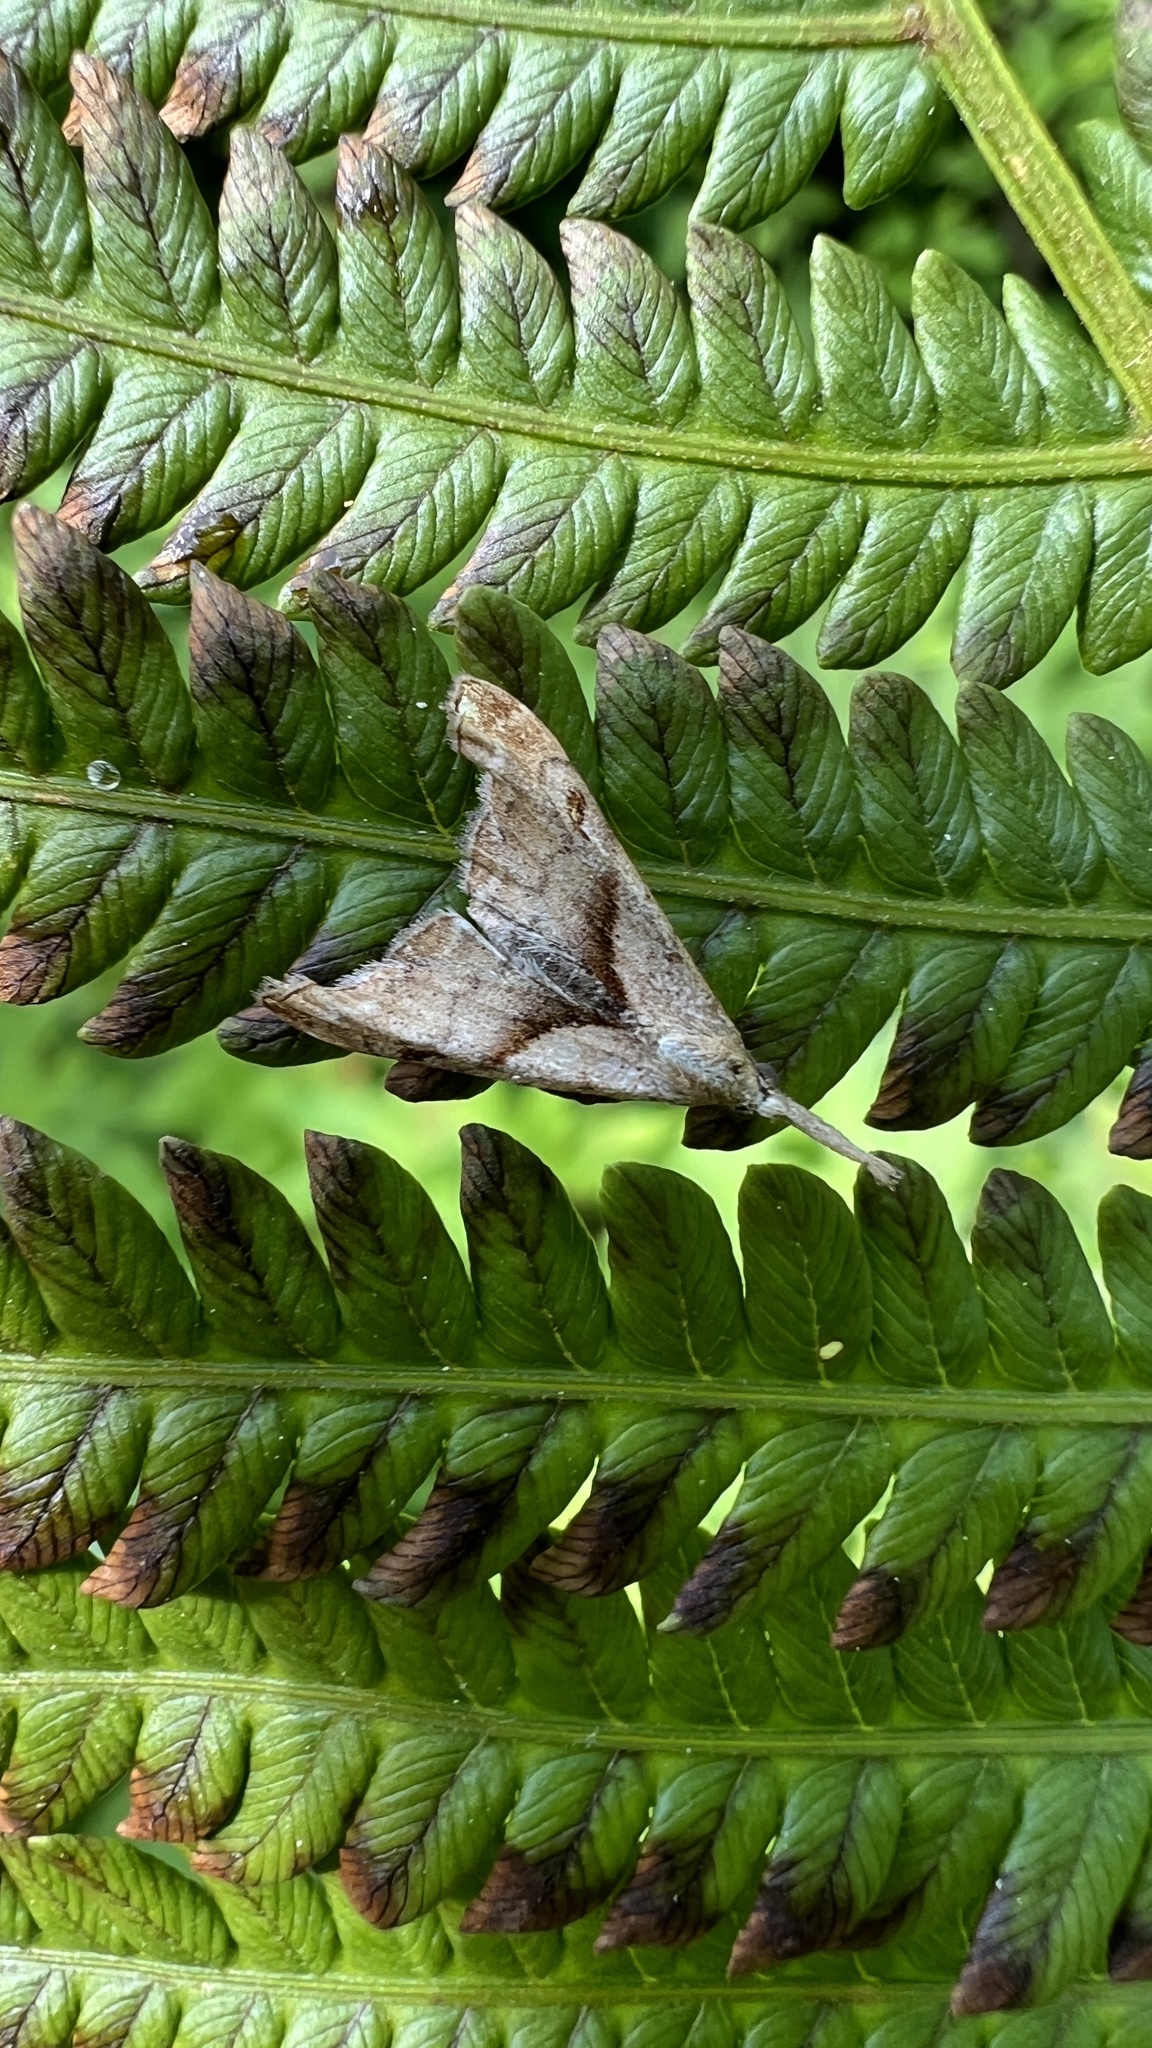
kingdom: Animalia
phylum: Arthropoda
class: Insecta
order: Lepidoptera
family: Erebidae
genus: Palthis
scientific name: Palthis angulalis
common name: Dark-spotted palthis moth
